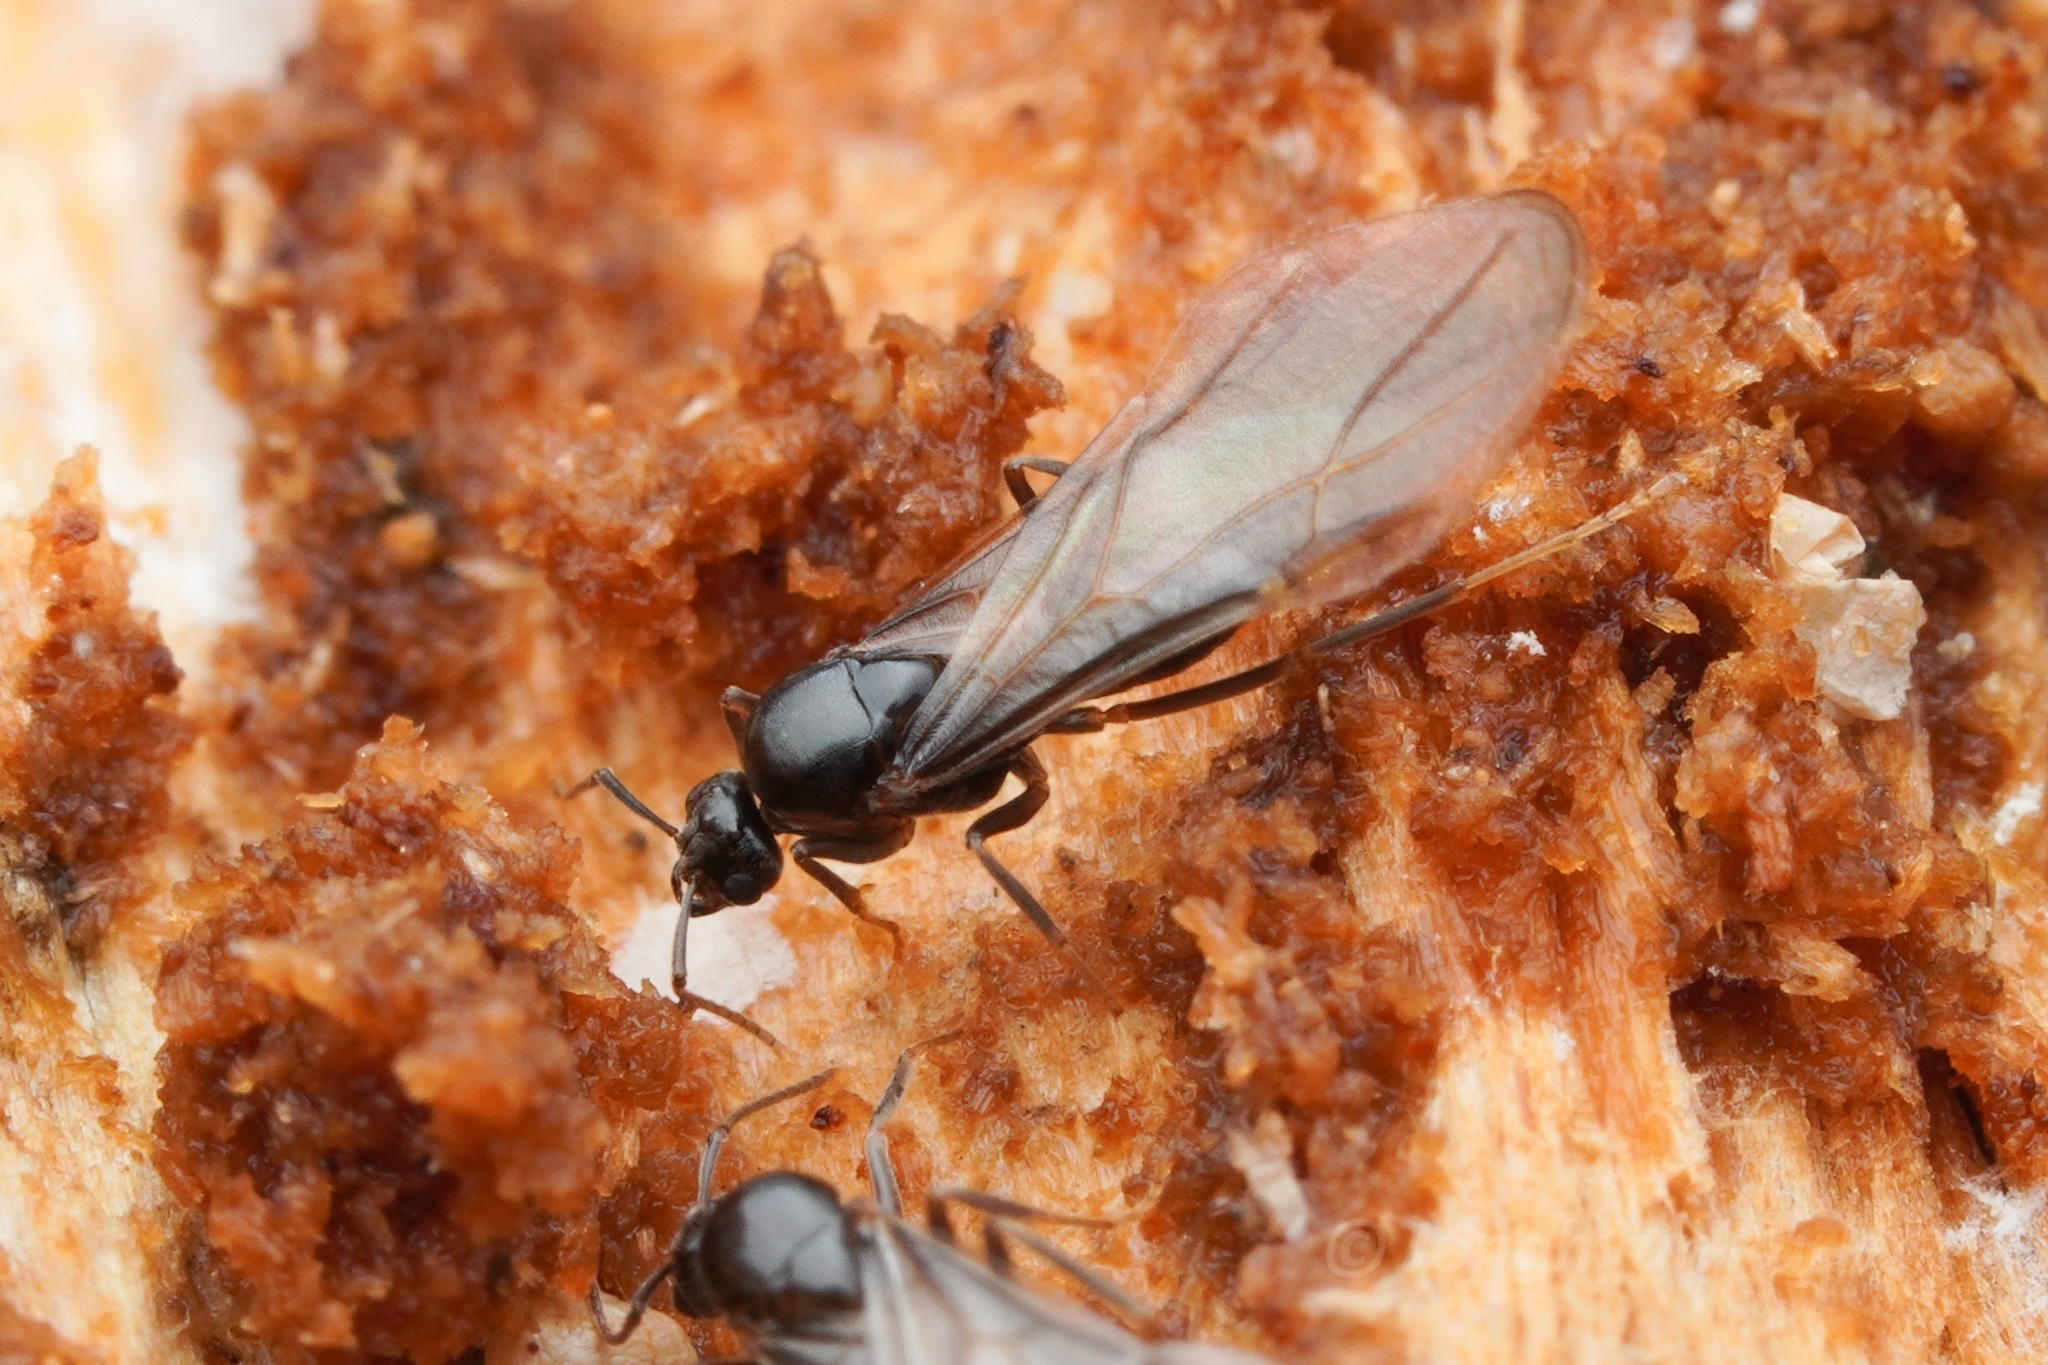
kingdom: Animalia
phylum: Arthropoda
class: Insecta
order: Hymenoptera
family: Formicidae
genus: Lasius
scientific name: Lasius pallitarsis
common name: Subterranean aphid-tending ant
